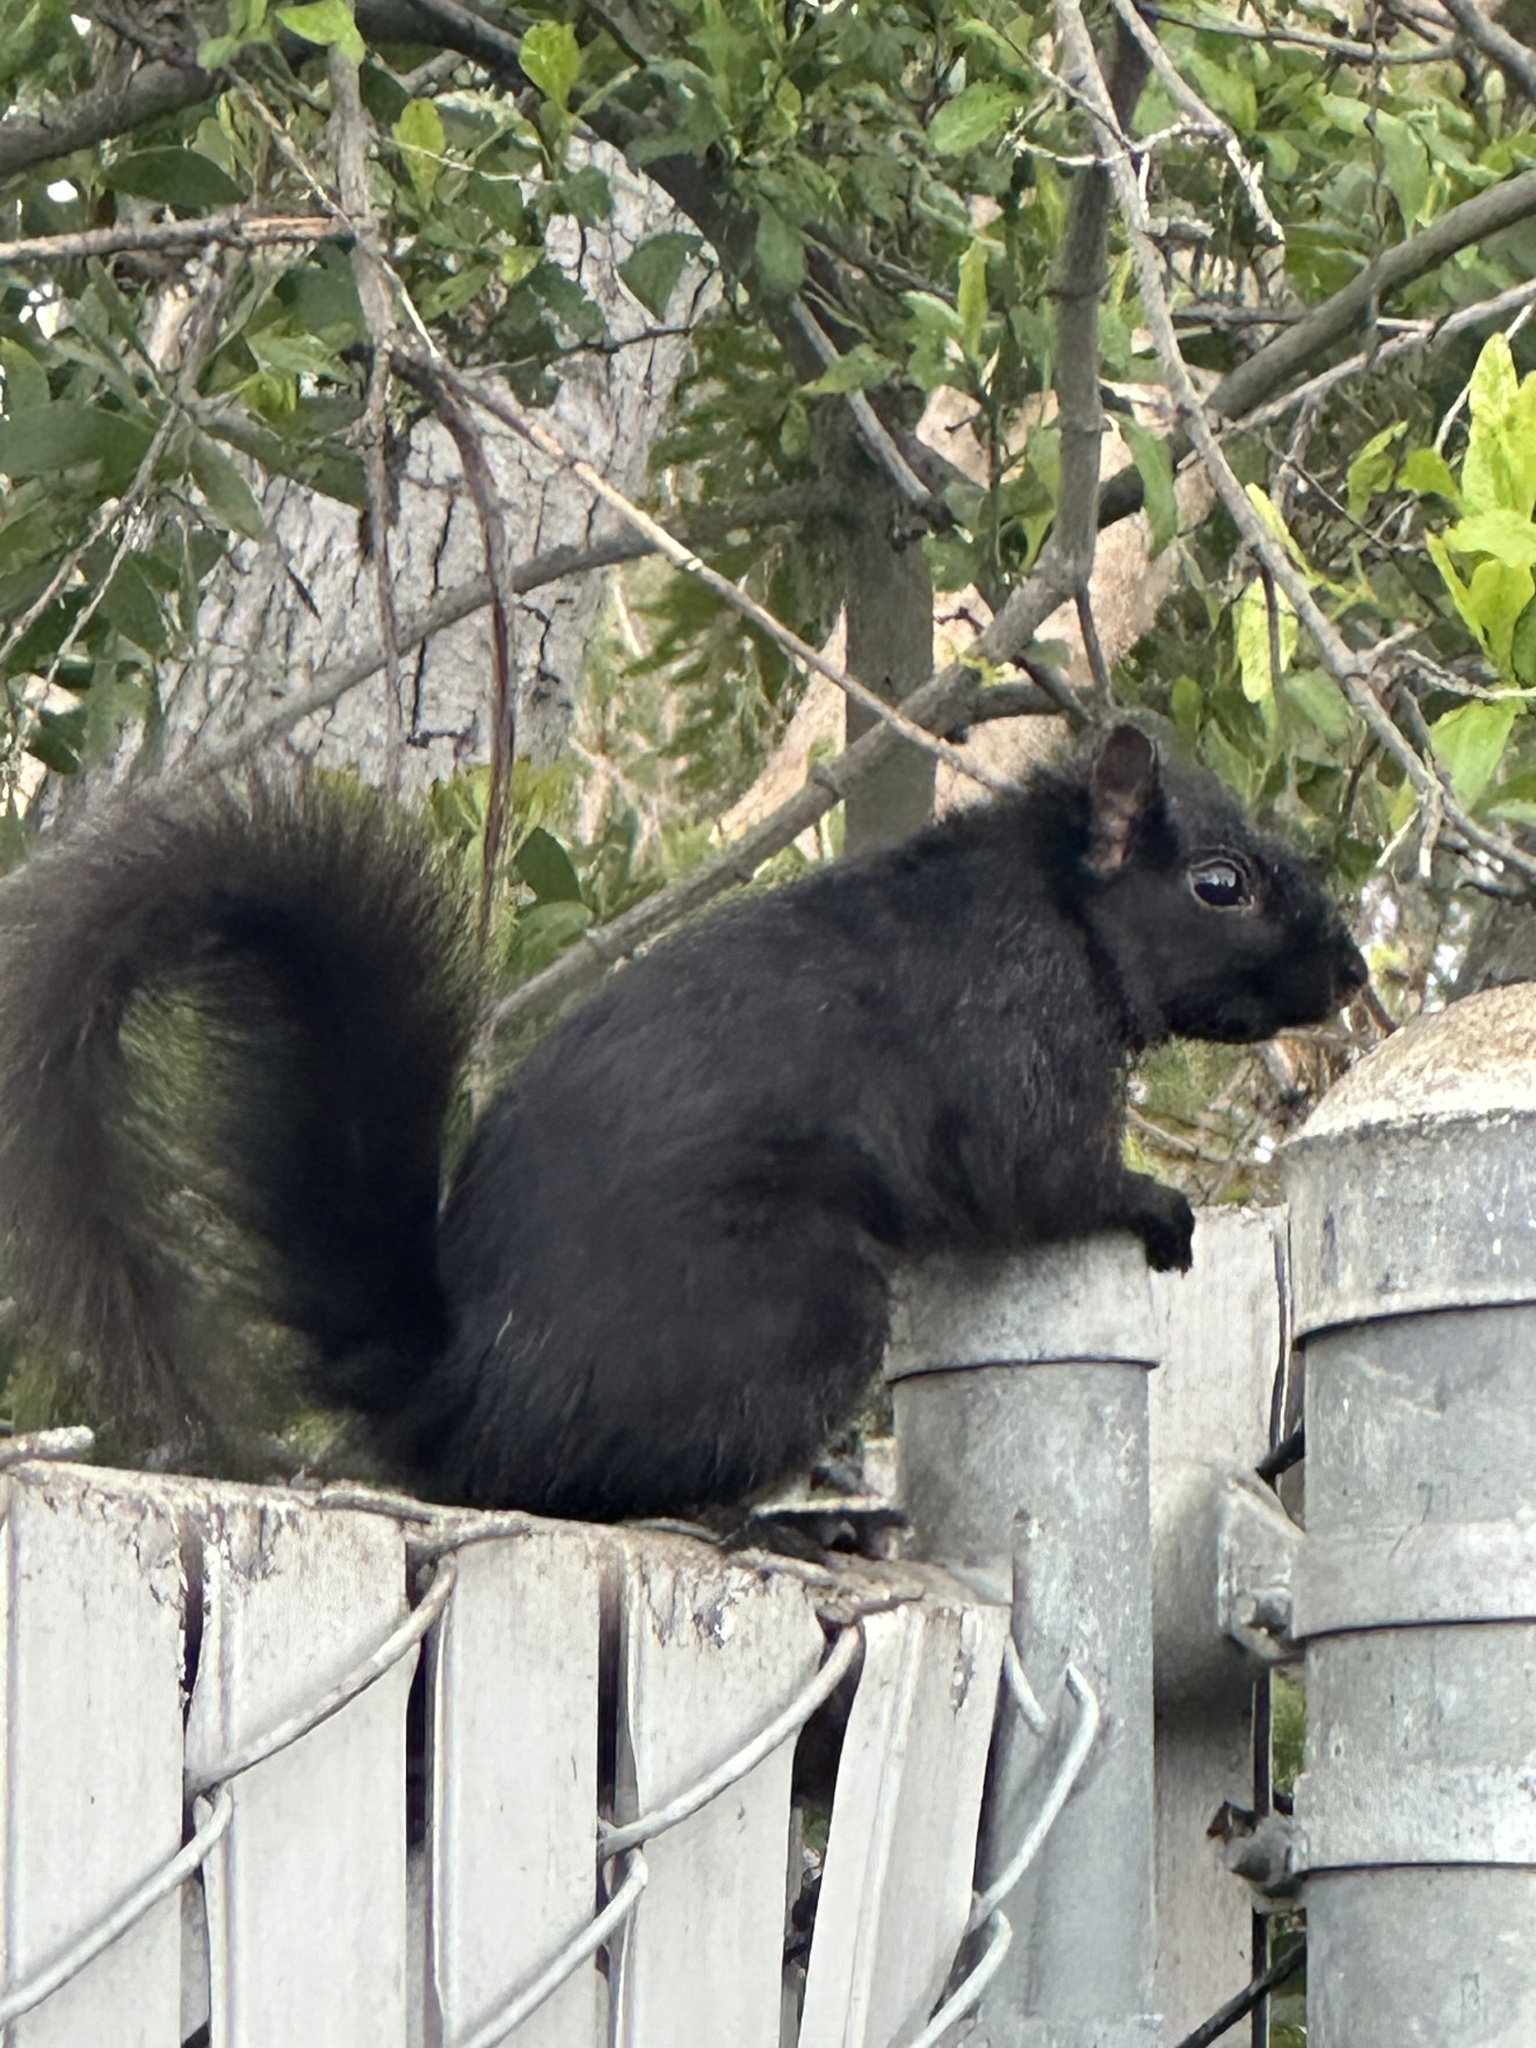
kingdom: Animalia
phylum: Chordata
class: Mammalia
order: Rodentia
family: Sciuridae
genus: Sciurus
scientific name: Sciurus carolinensis
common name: Eastern gray squirrel
